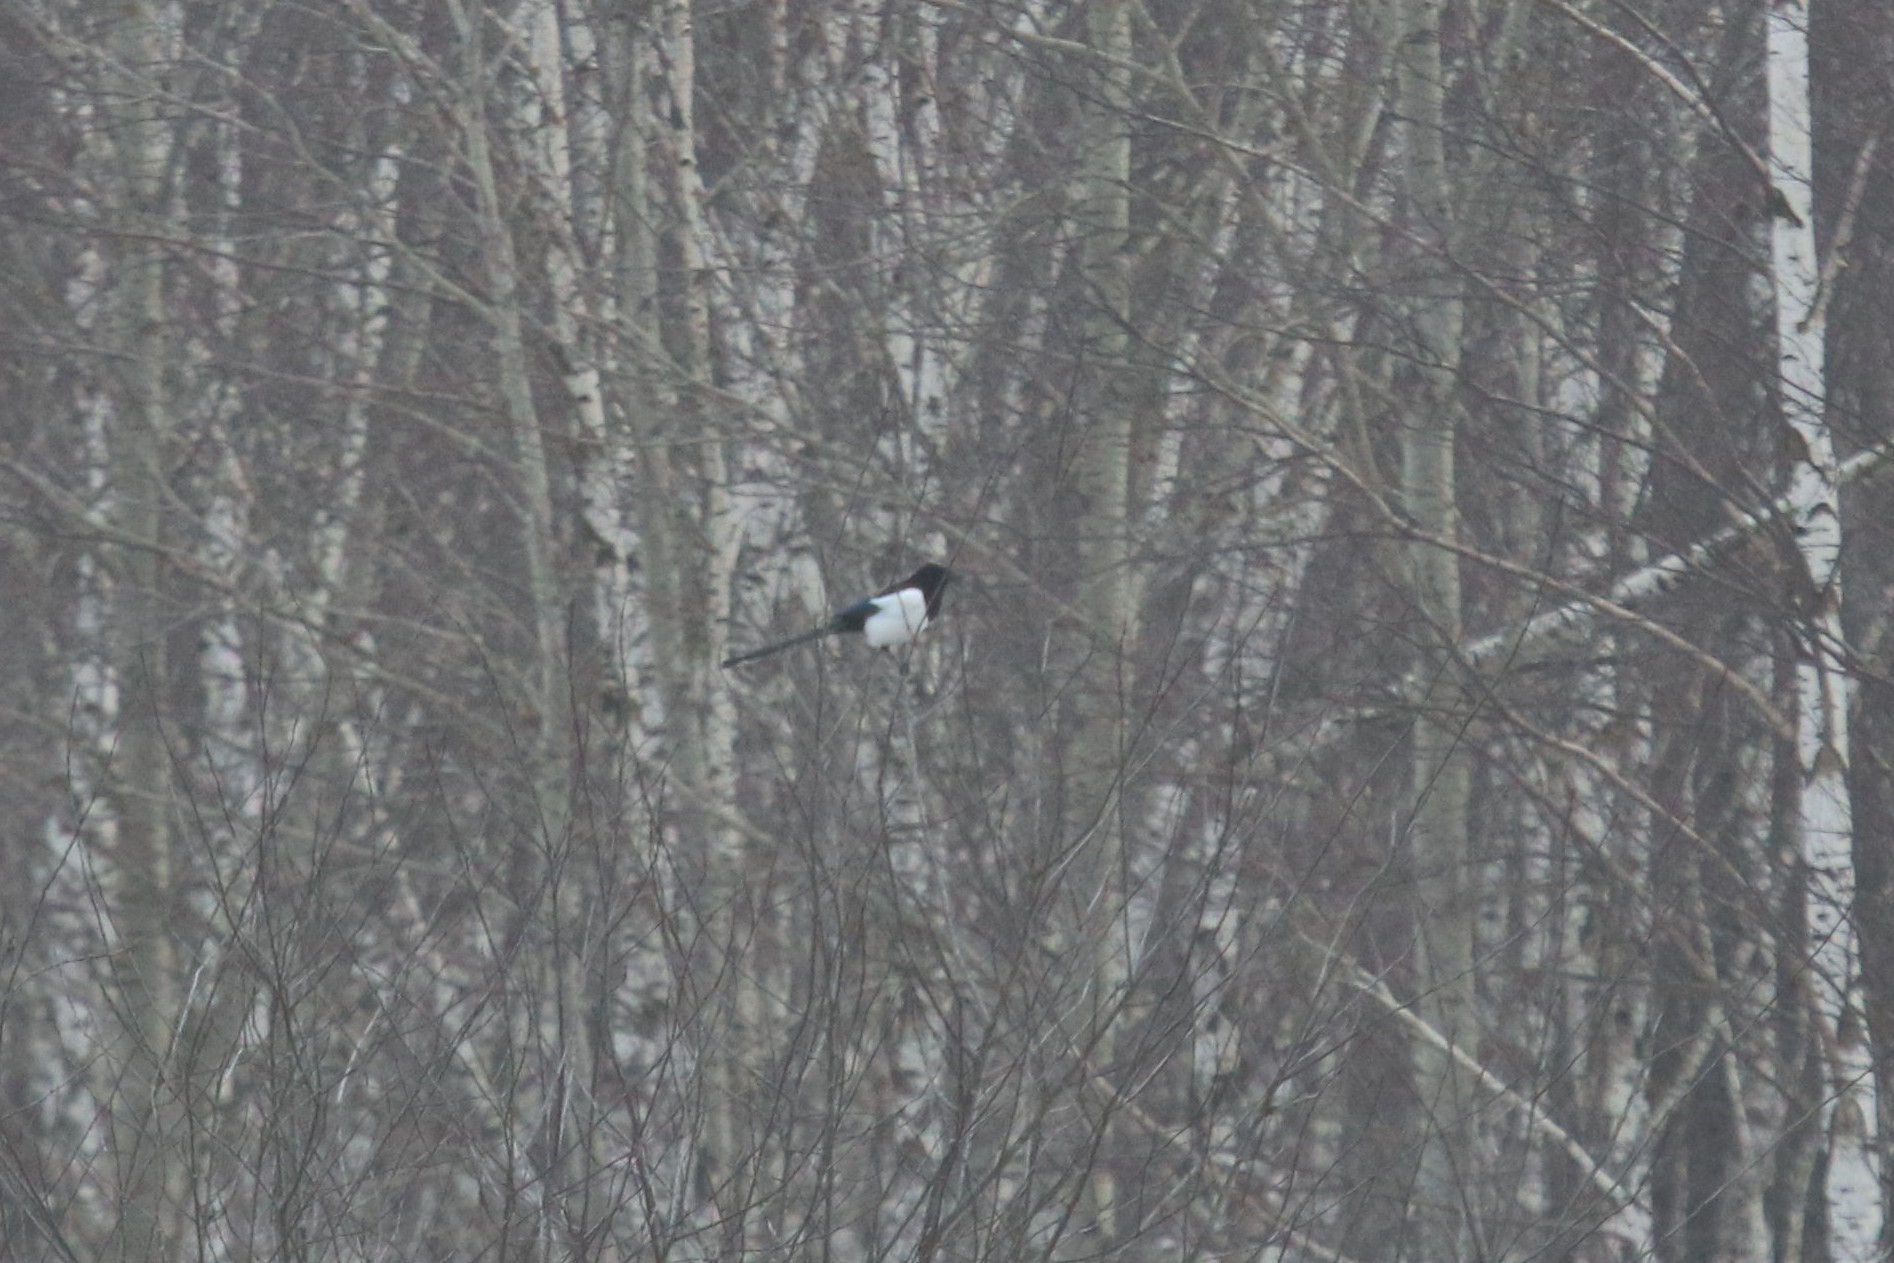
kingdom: Animalia
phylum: Chordata
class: Aves
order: Passeriformes
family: Corvidae
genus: Pica
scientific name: Pica pica
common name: Eurasian magpie
